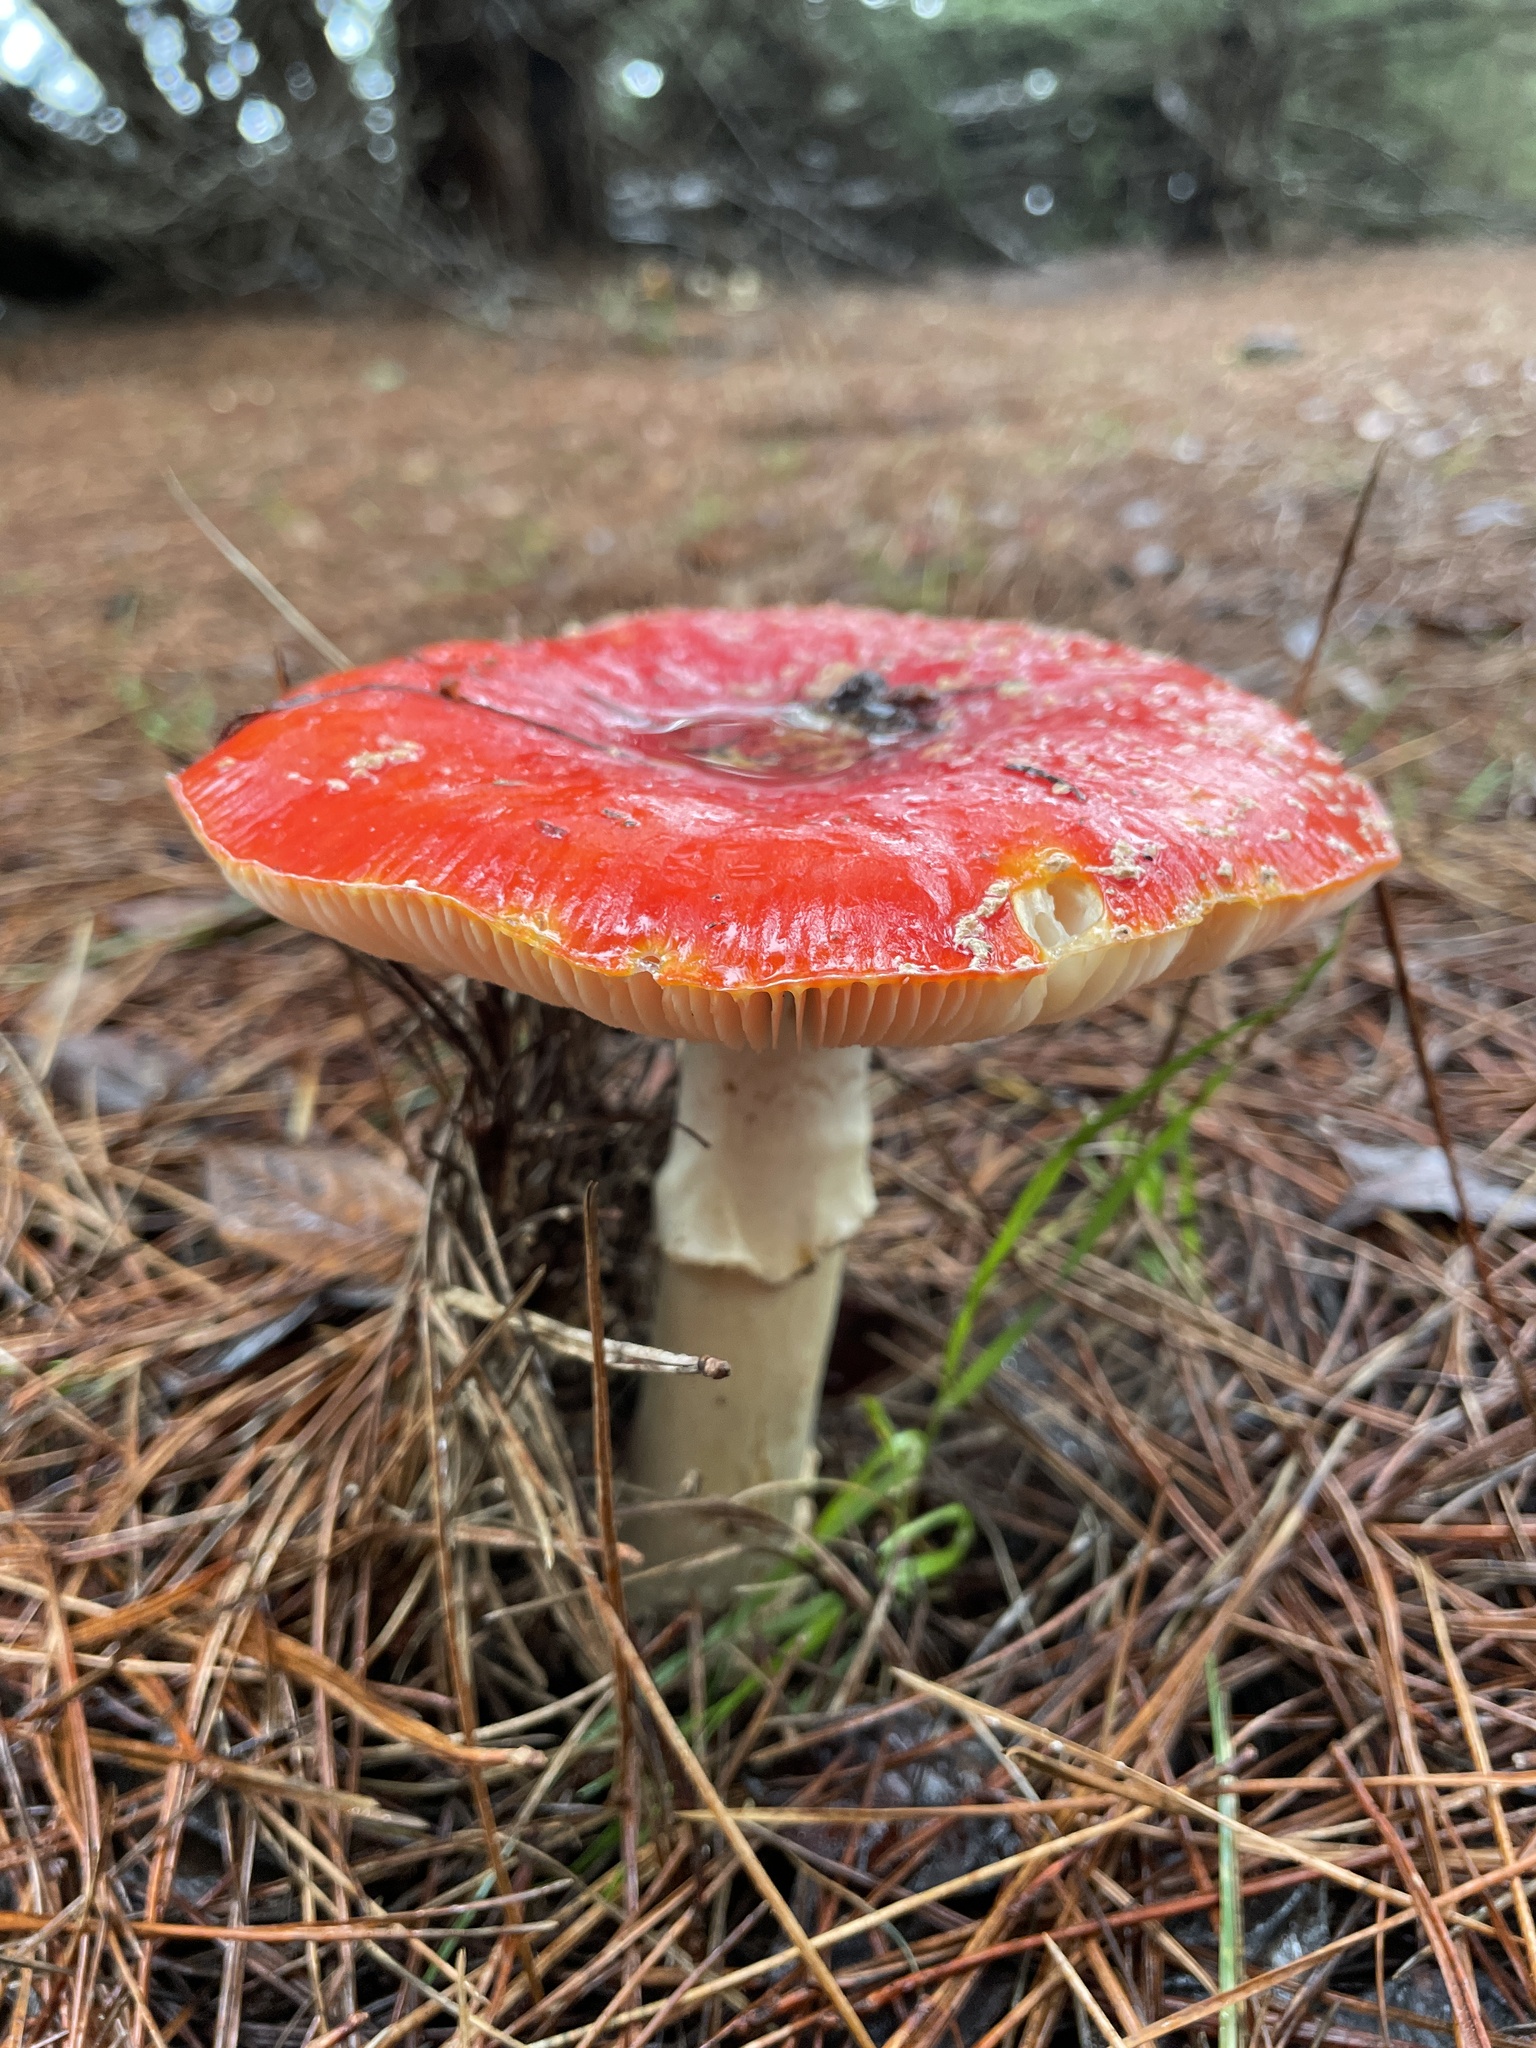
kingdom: Fungi
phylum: Basidiomycota
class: Agaricomycetes
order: Agaricales
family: Amanitaceae
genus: Amanita
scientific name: Amanita muscaria
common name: Fly agaric
